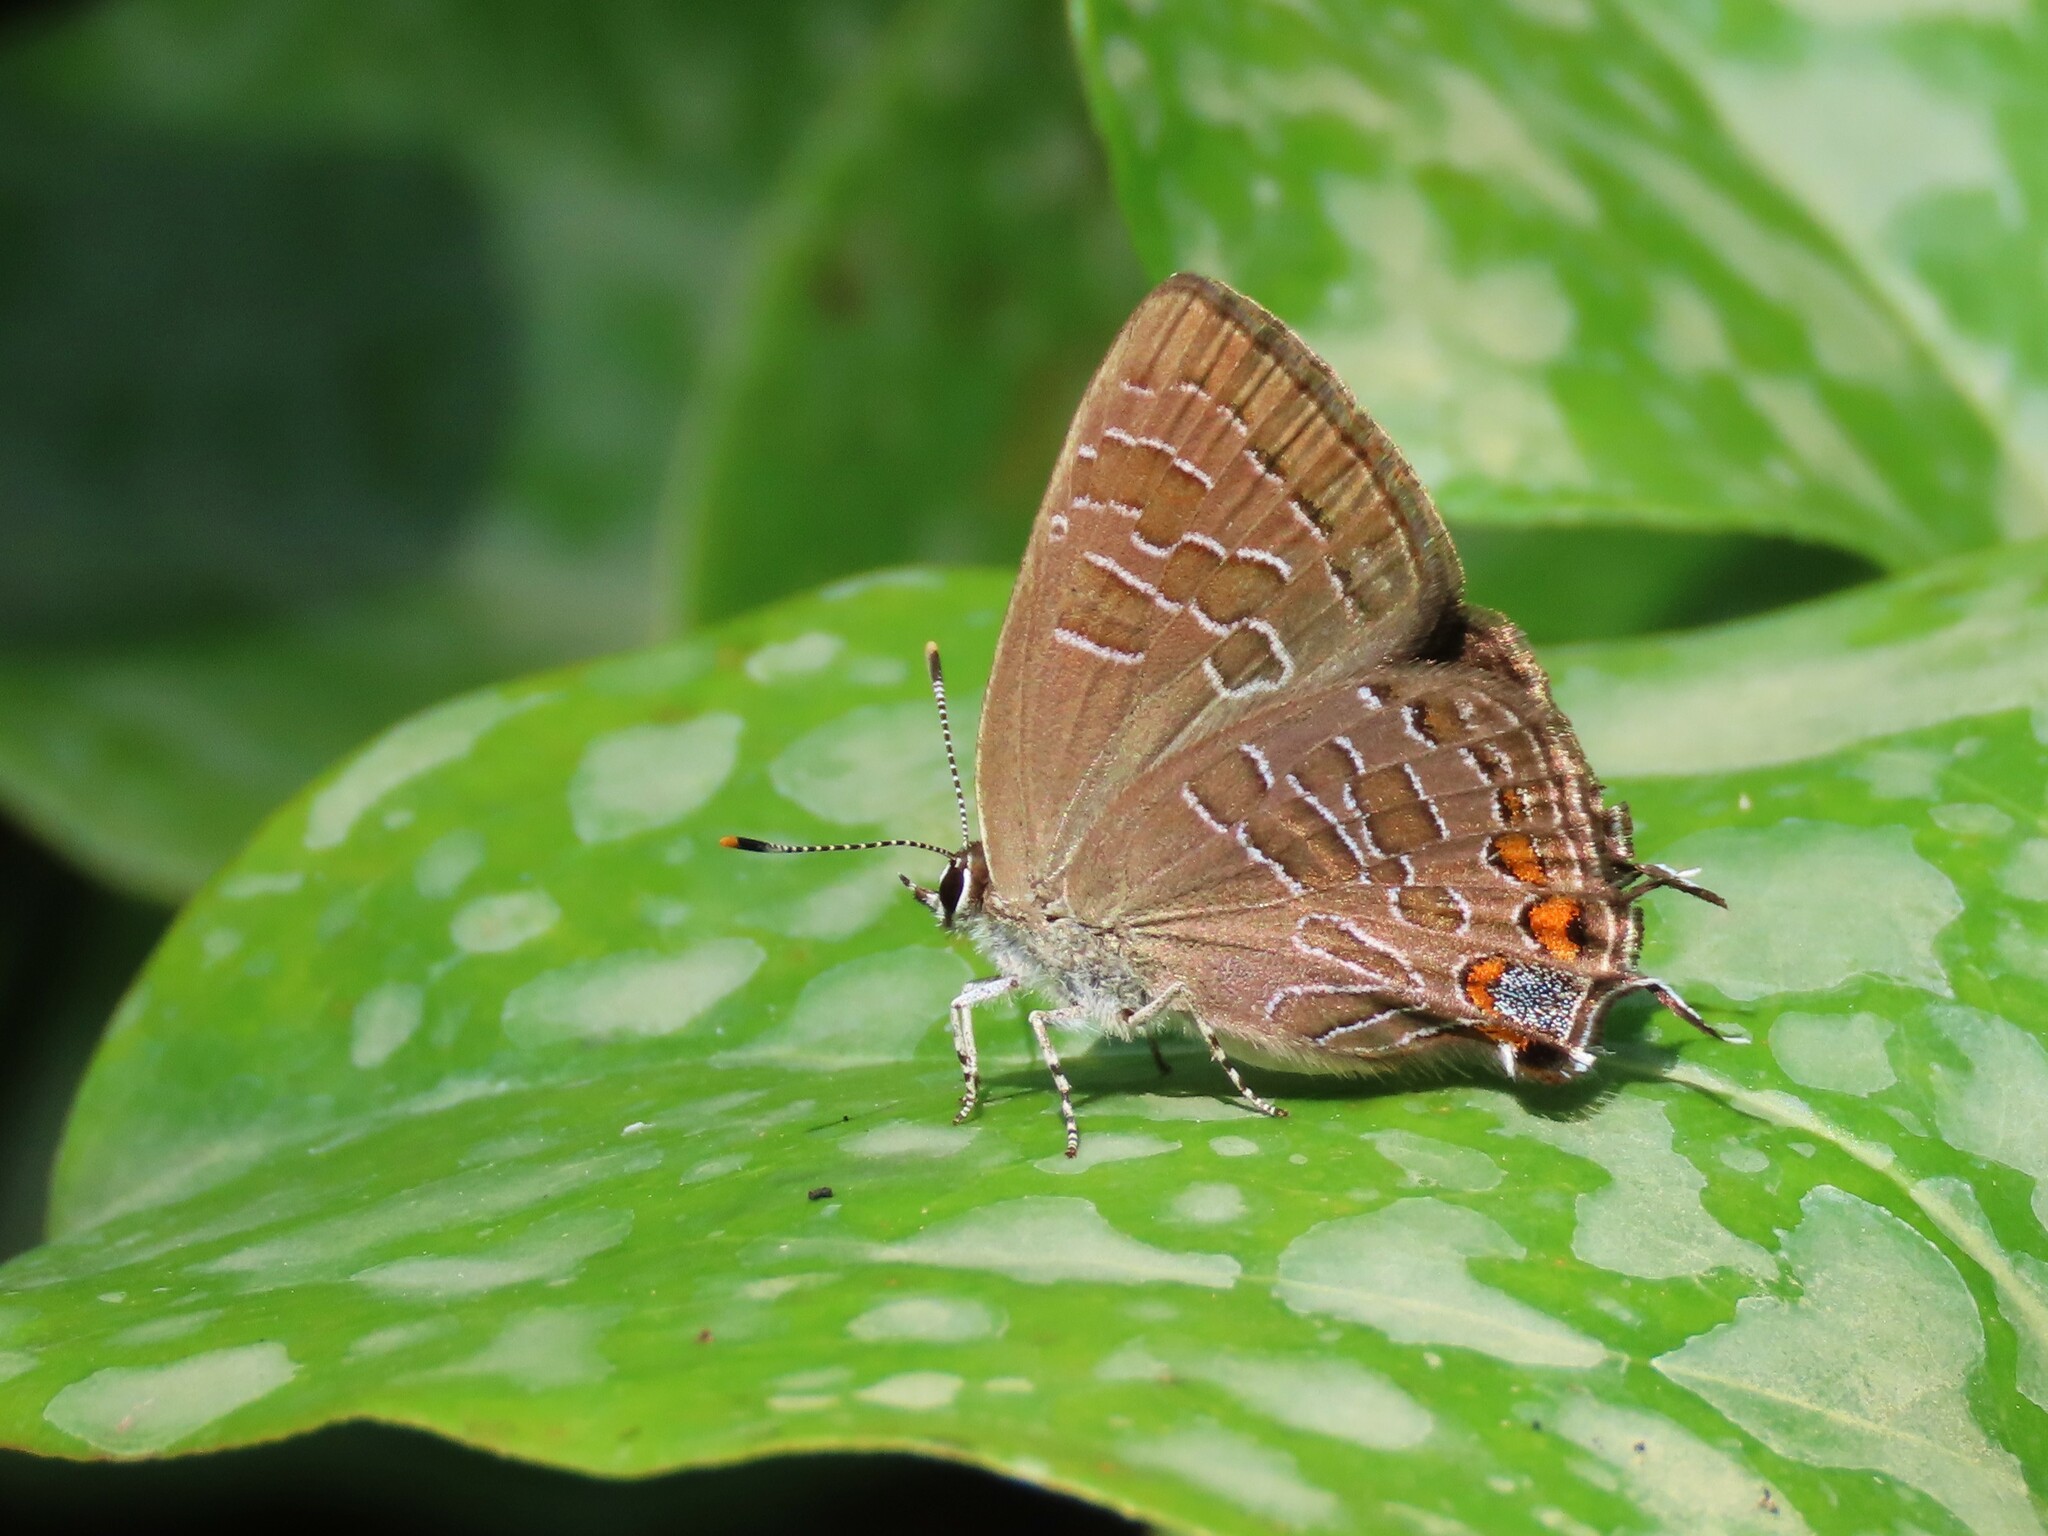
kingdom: Animalia
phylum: Arthropoda
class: Insecta
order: Lepidoptera
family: Lycaenidae
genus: Satyrium
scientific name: Satyrium liparops
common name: Striped hairstreak
